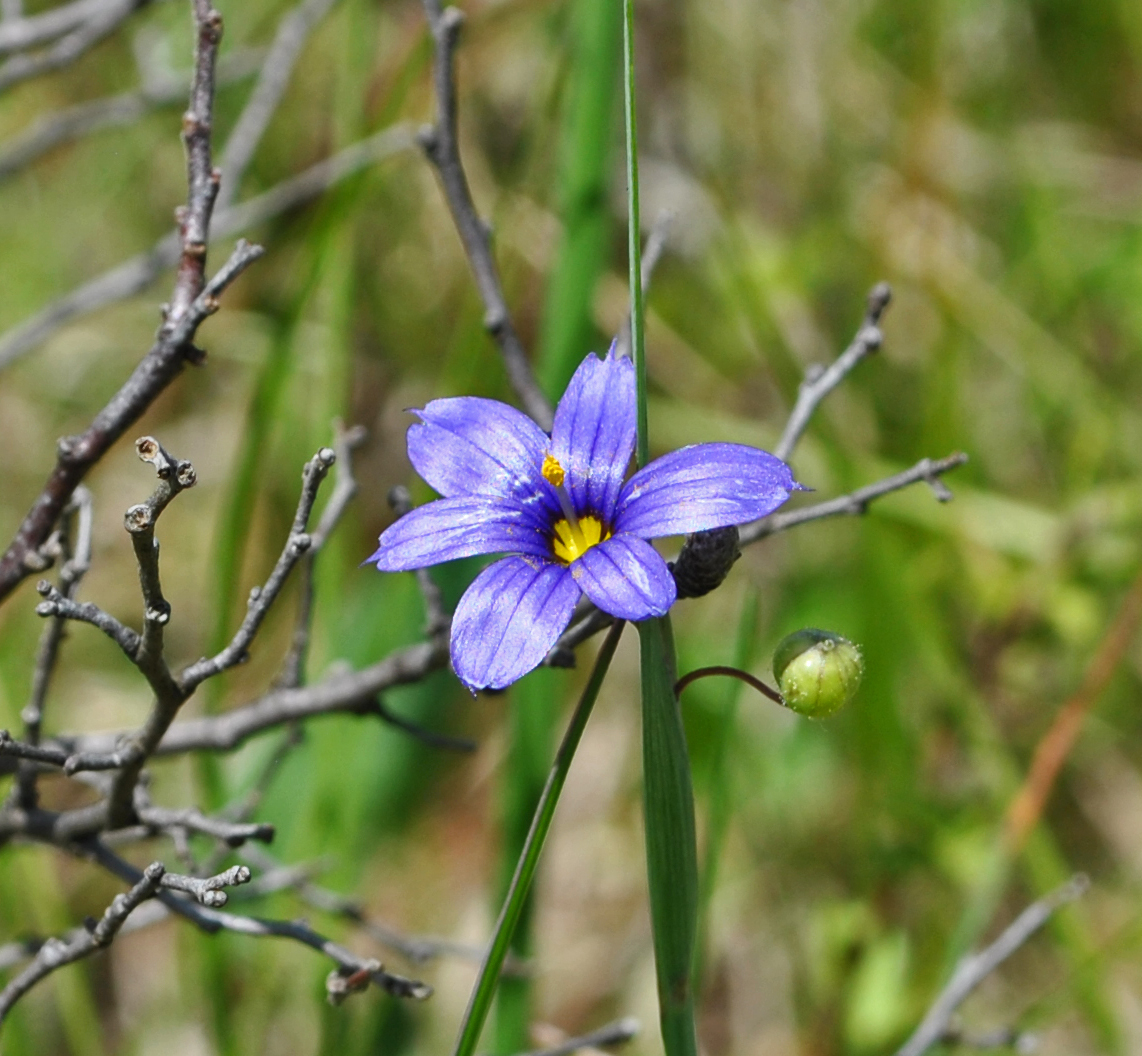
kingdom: Plantae
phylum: Tracheophyta
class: Liliopsida
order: Asparagales
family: Iridaceae
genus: Sisyrinchium
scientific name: Sisyrinchium campestre
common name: Prairie blue-eyed-grass
